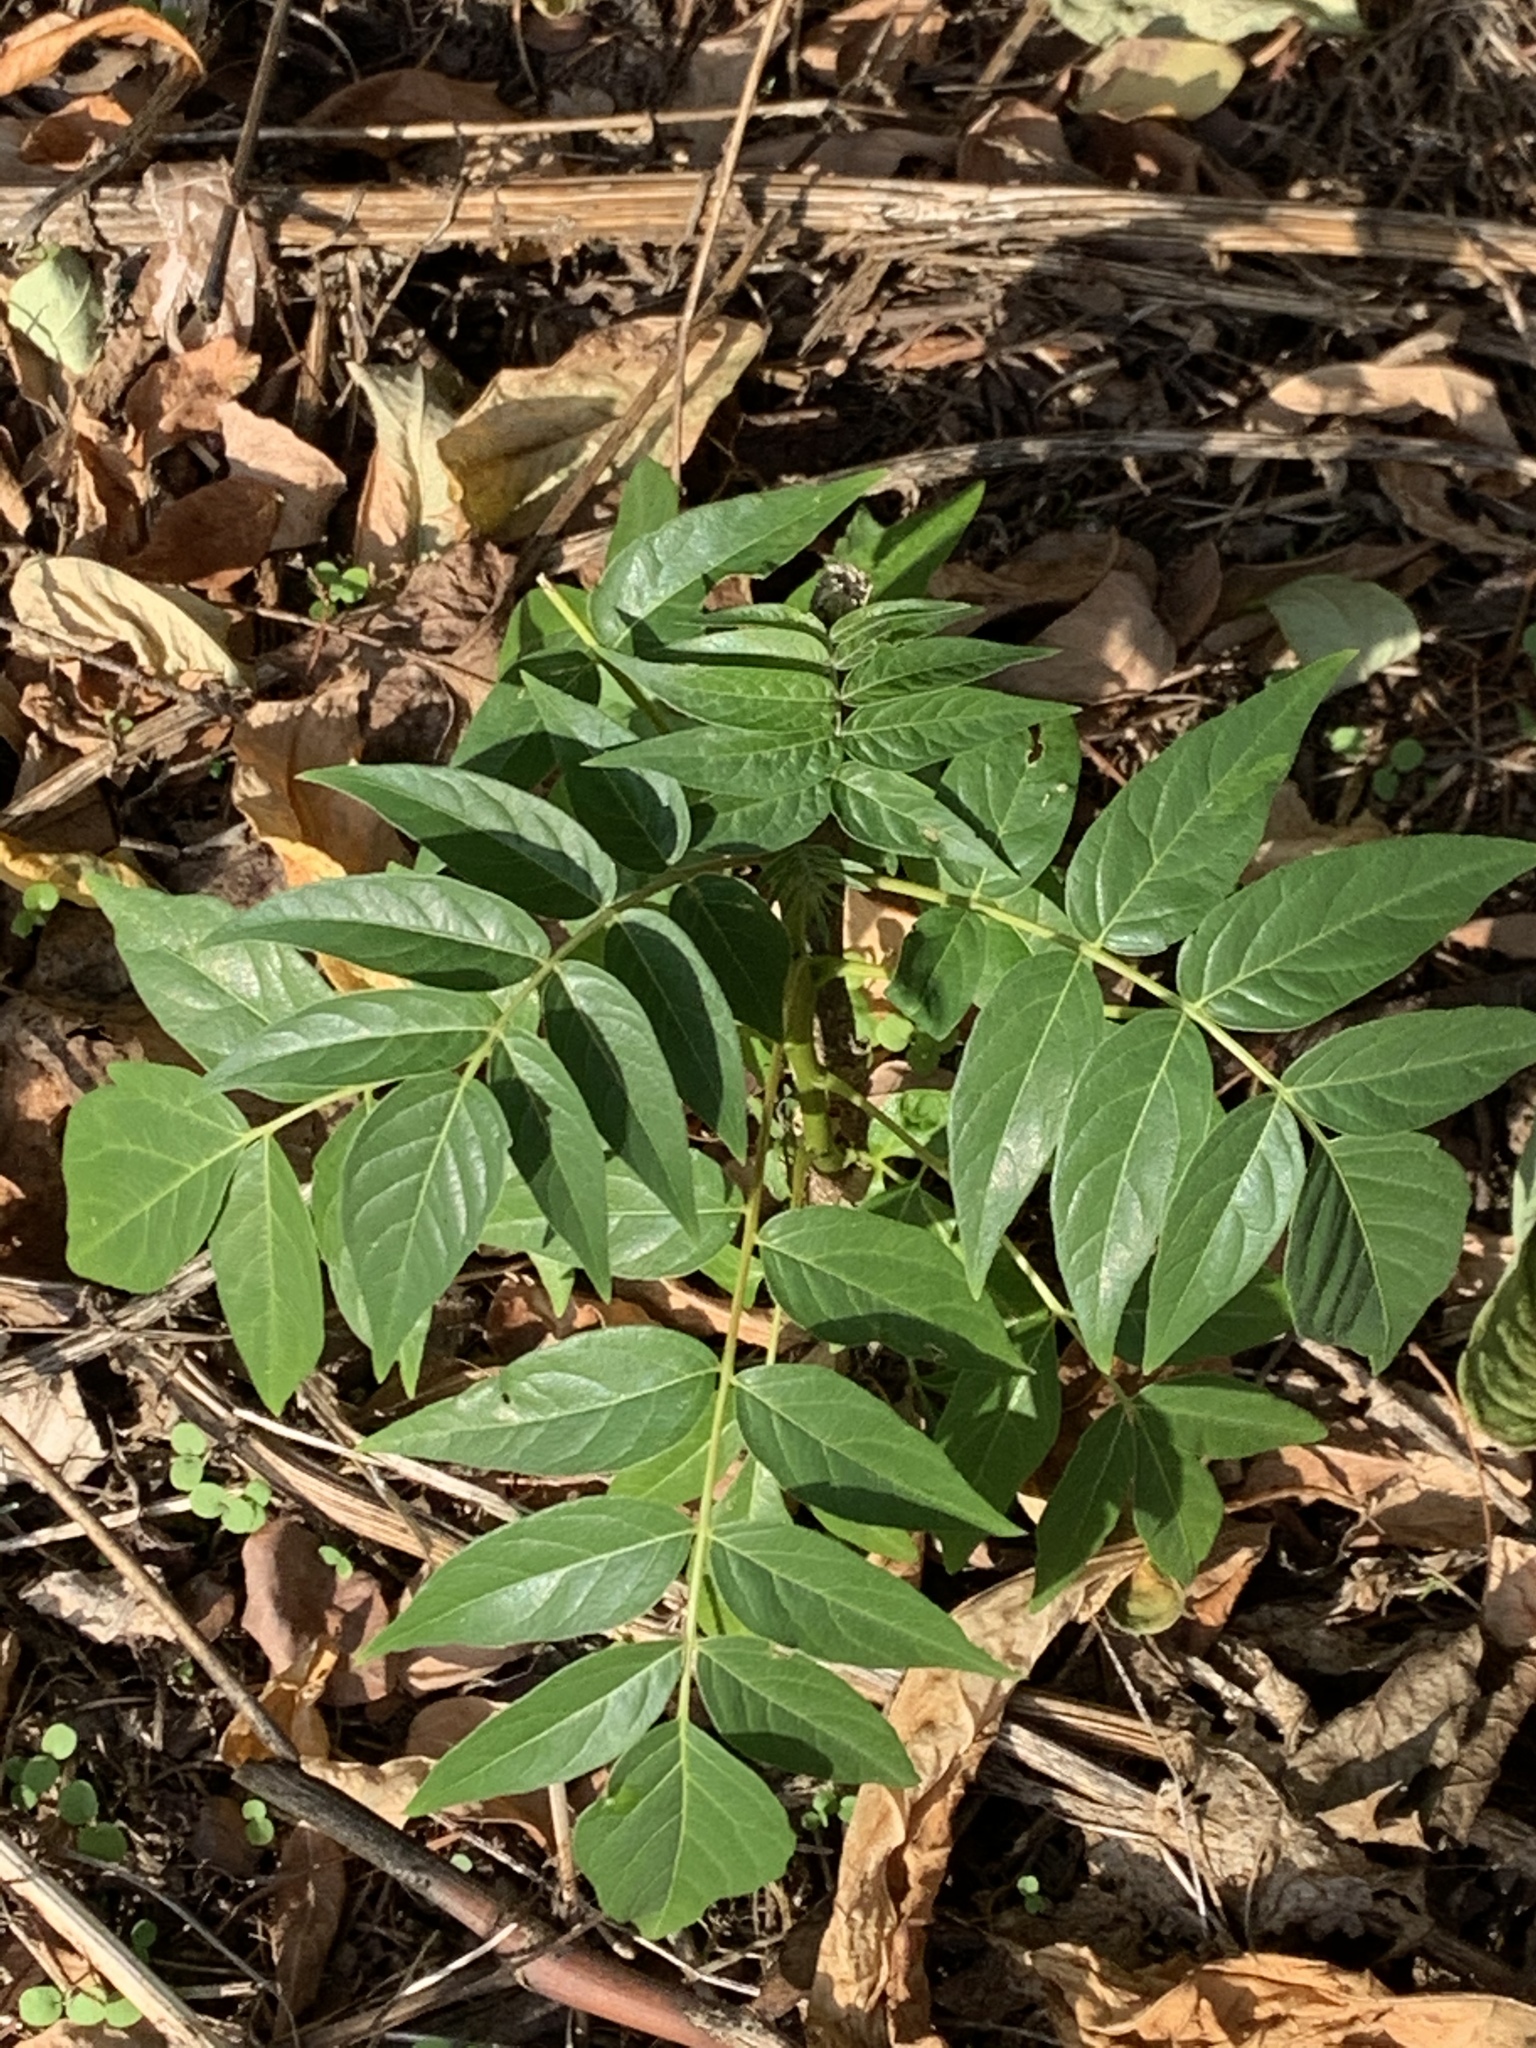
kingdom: Plantae
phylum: Tracheophyta
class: Magnoliopsida
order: Sapindales
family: Simaroubaceae
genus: Ailanthus
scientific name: Ailanthus altissima
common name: Tree-of-heaven
